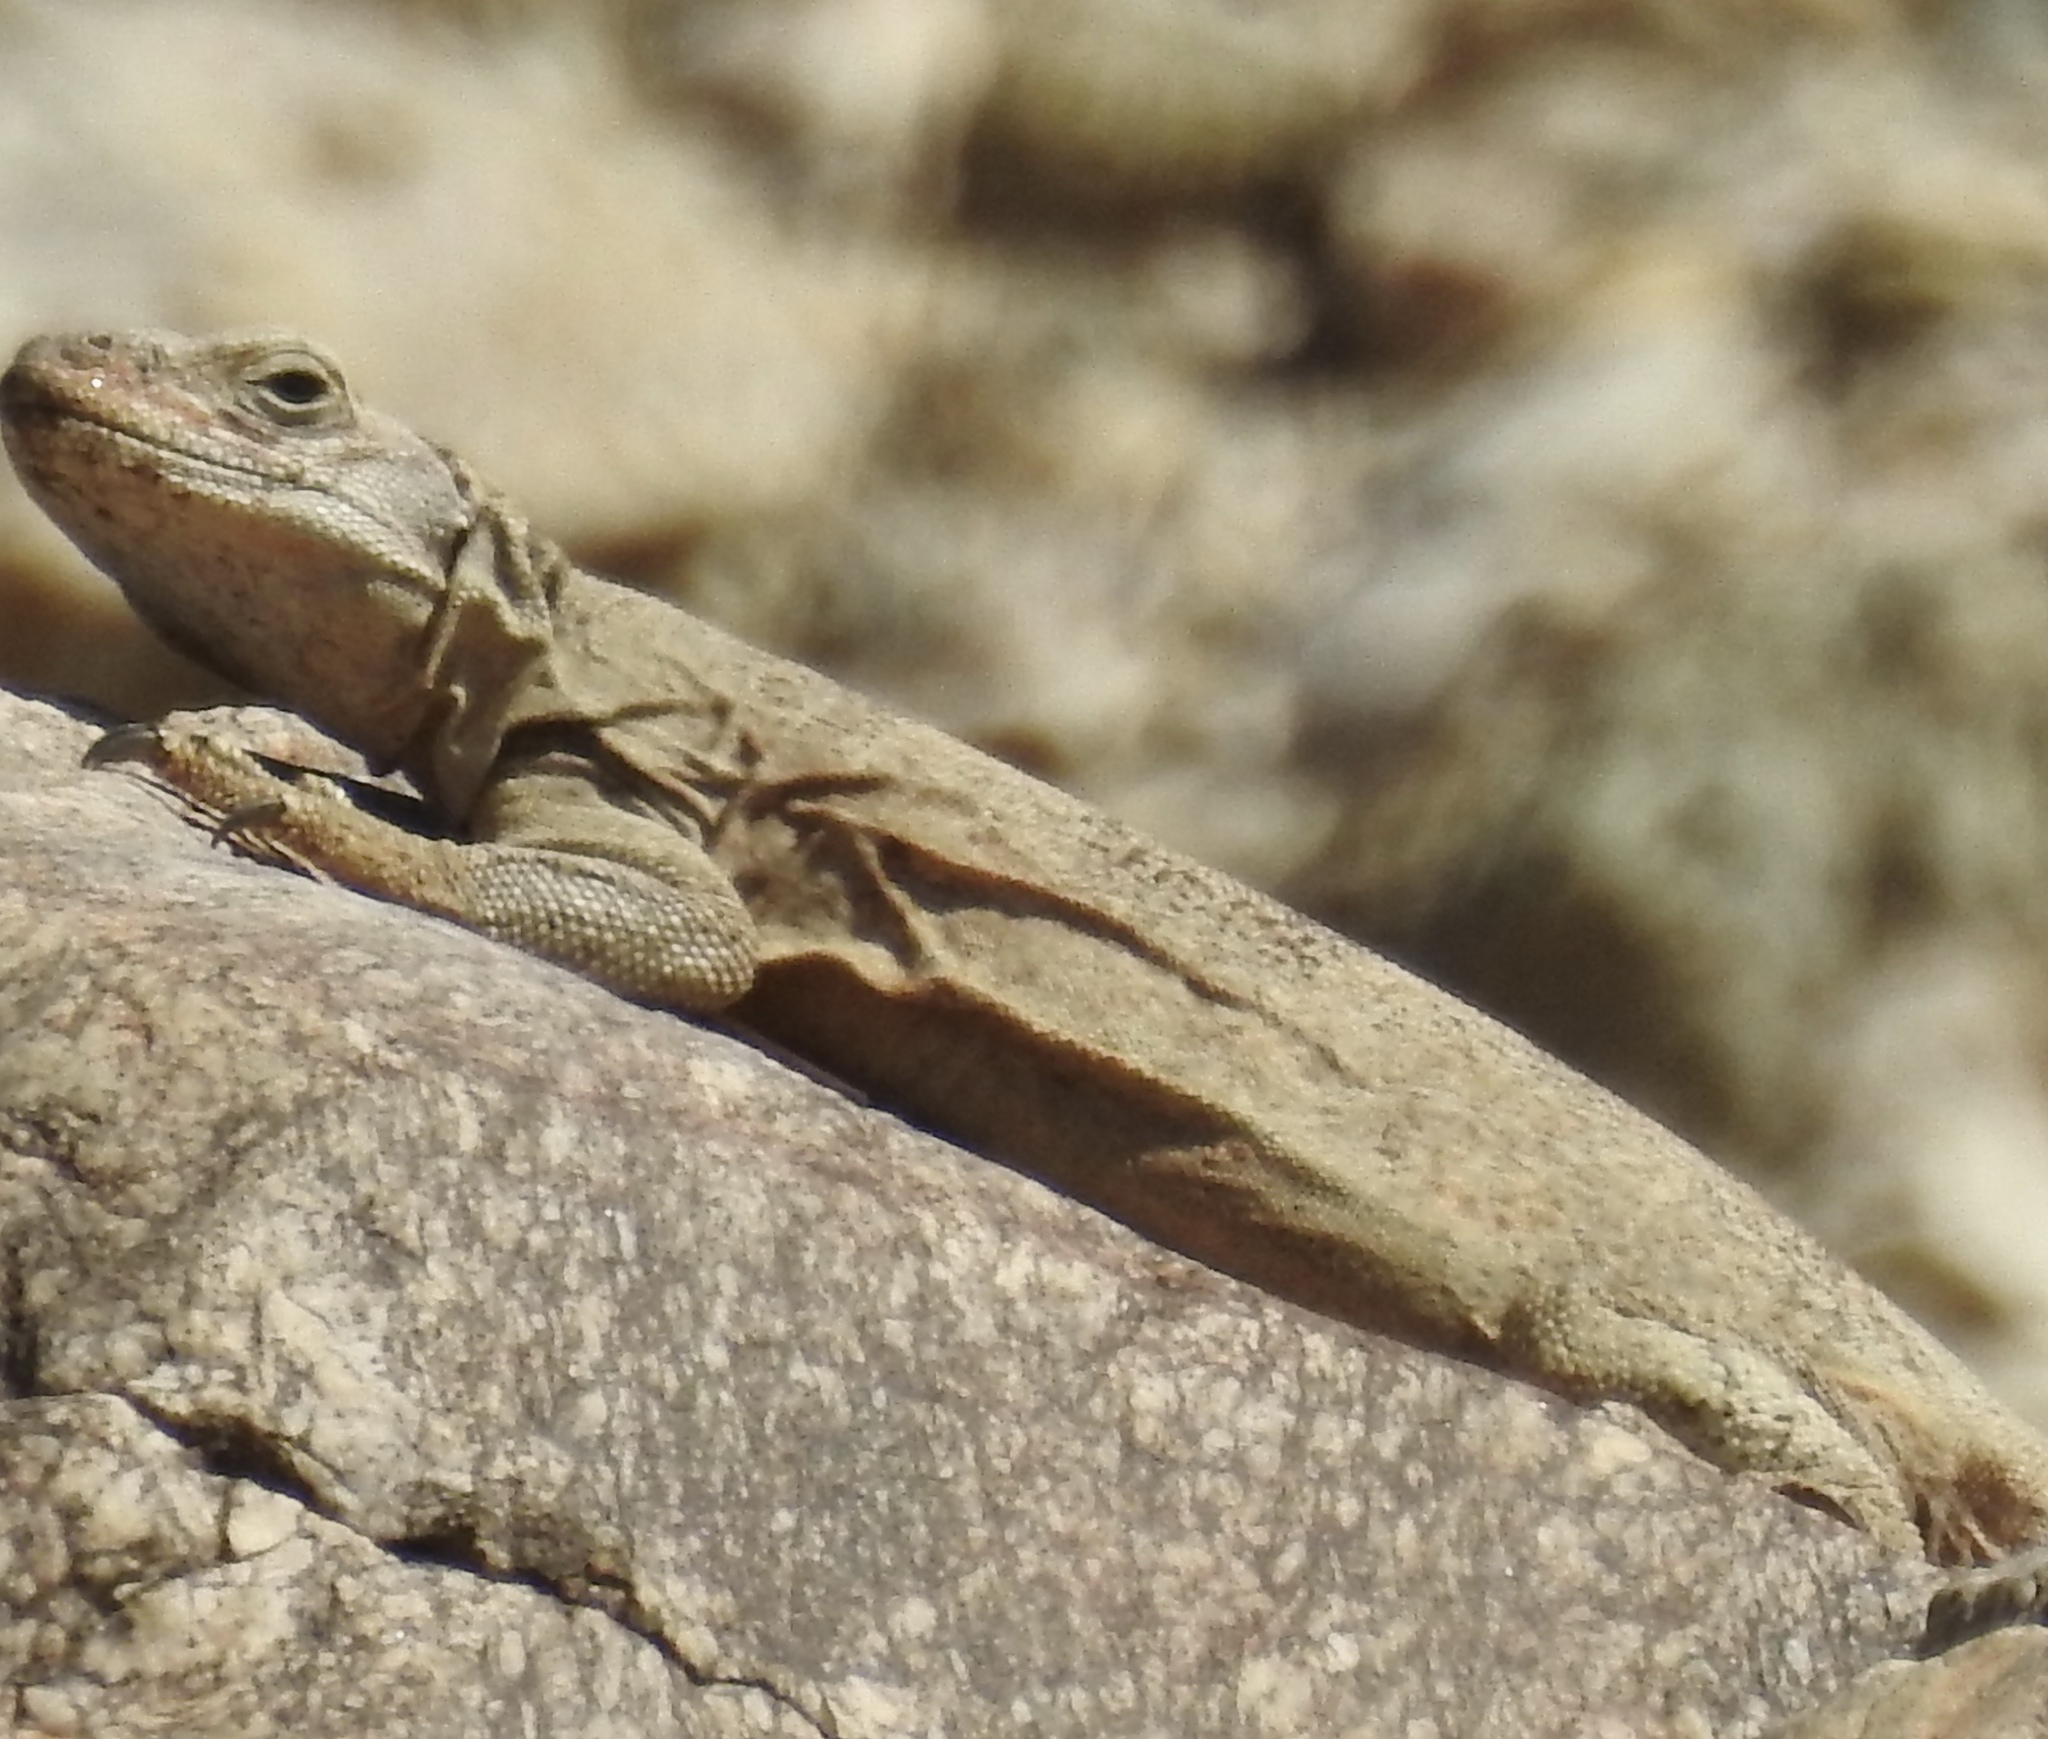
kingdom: Animalia
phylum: Chordata
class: Squamata
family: Iguanidae
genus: Sauromalus
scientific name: Sauromalus ater
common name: Northern chuckwalla
